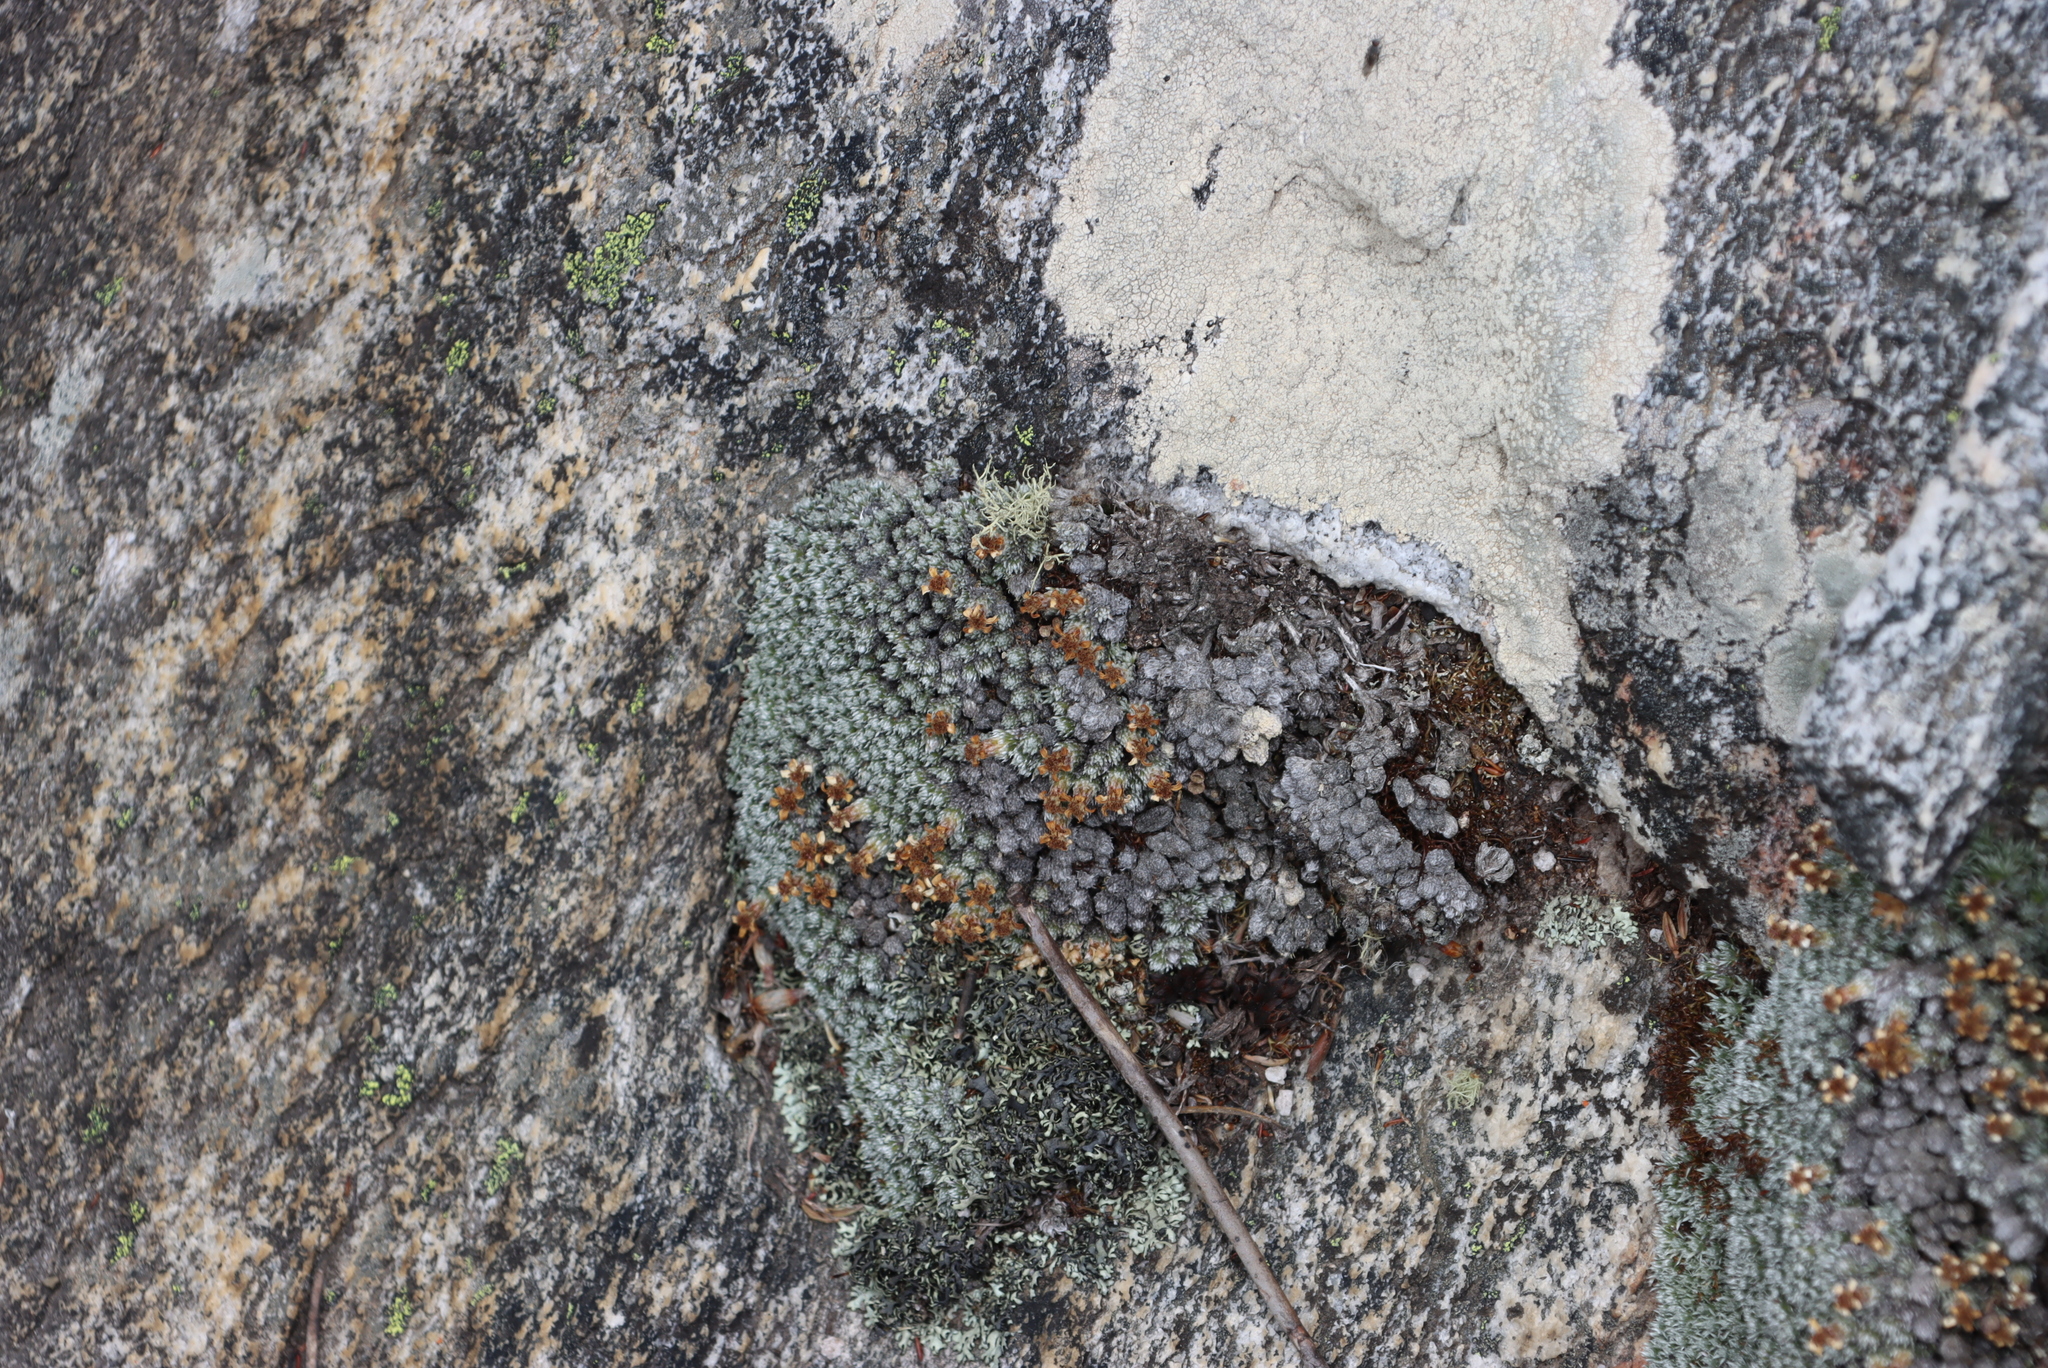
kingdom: Plantae
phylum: Tracheophyta
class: Magnoliopsida
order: Asterales
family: Asteraceae
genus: Muscosomorphe
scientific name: Muscosomorphe aretioides
